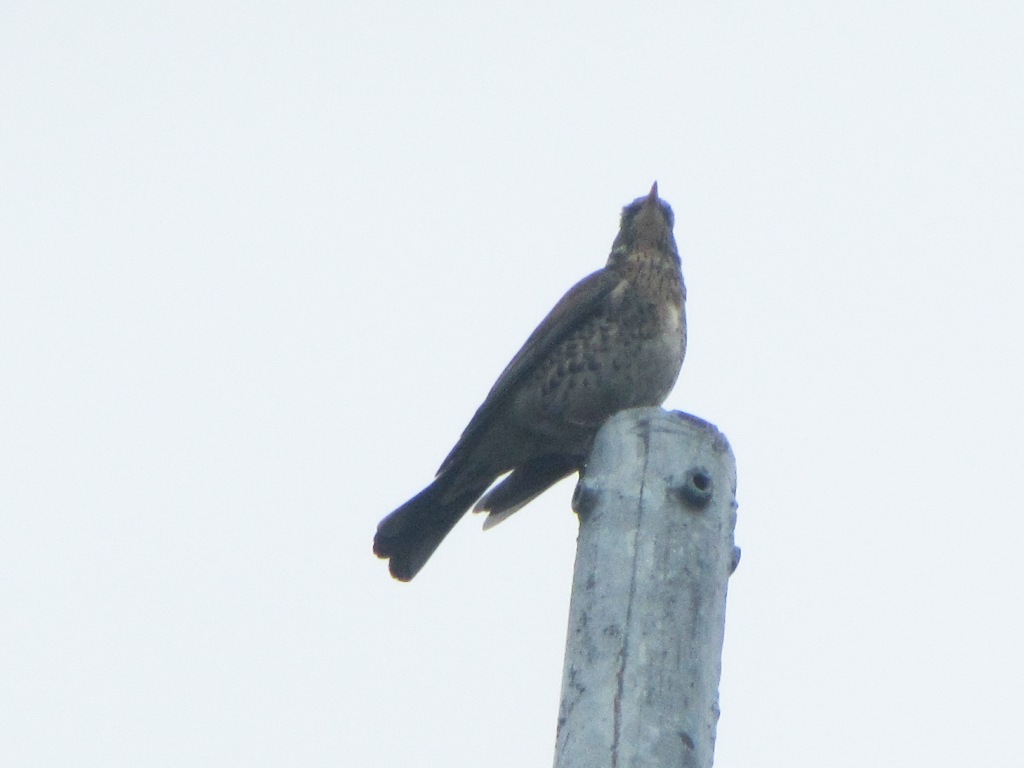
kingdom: Animalia
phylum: Chordata
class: Aves
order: Passeriformes
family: Turdidae
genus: Turdus
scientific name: Turdus pilaris
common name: Fieldfare
